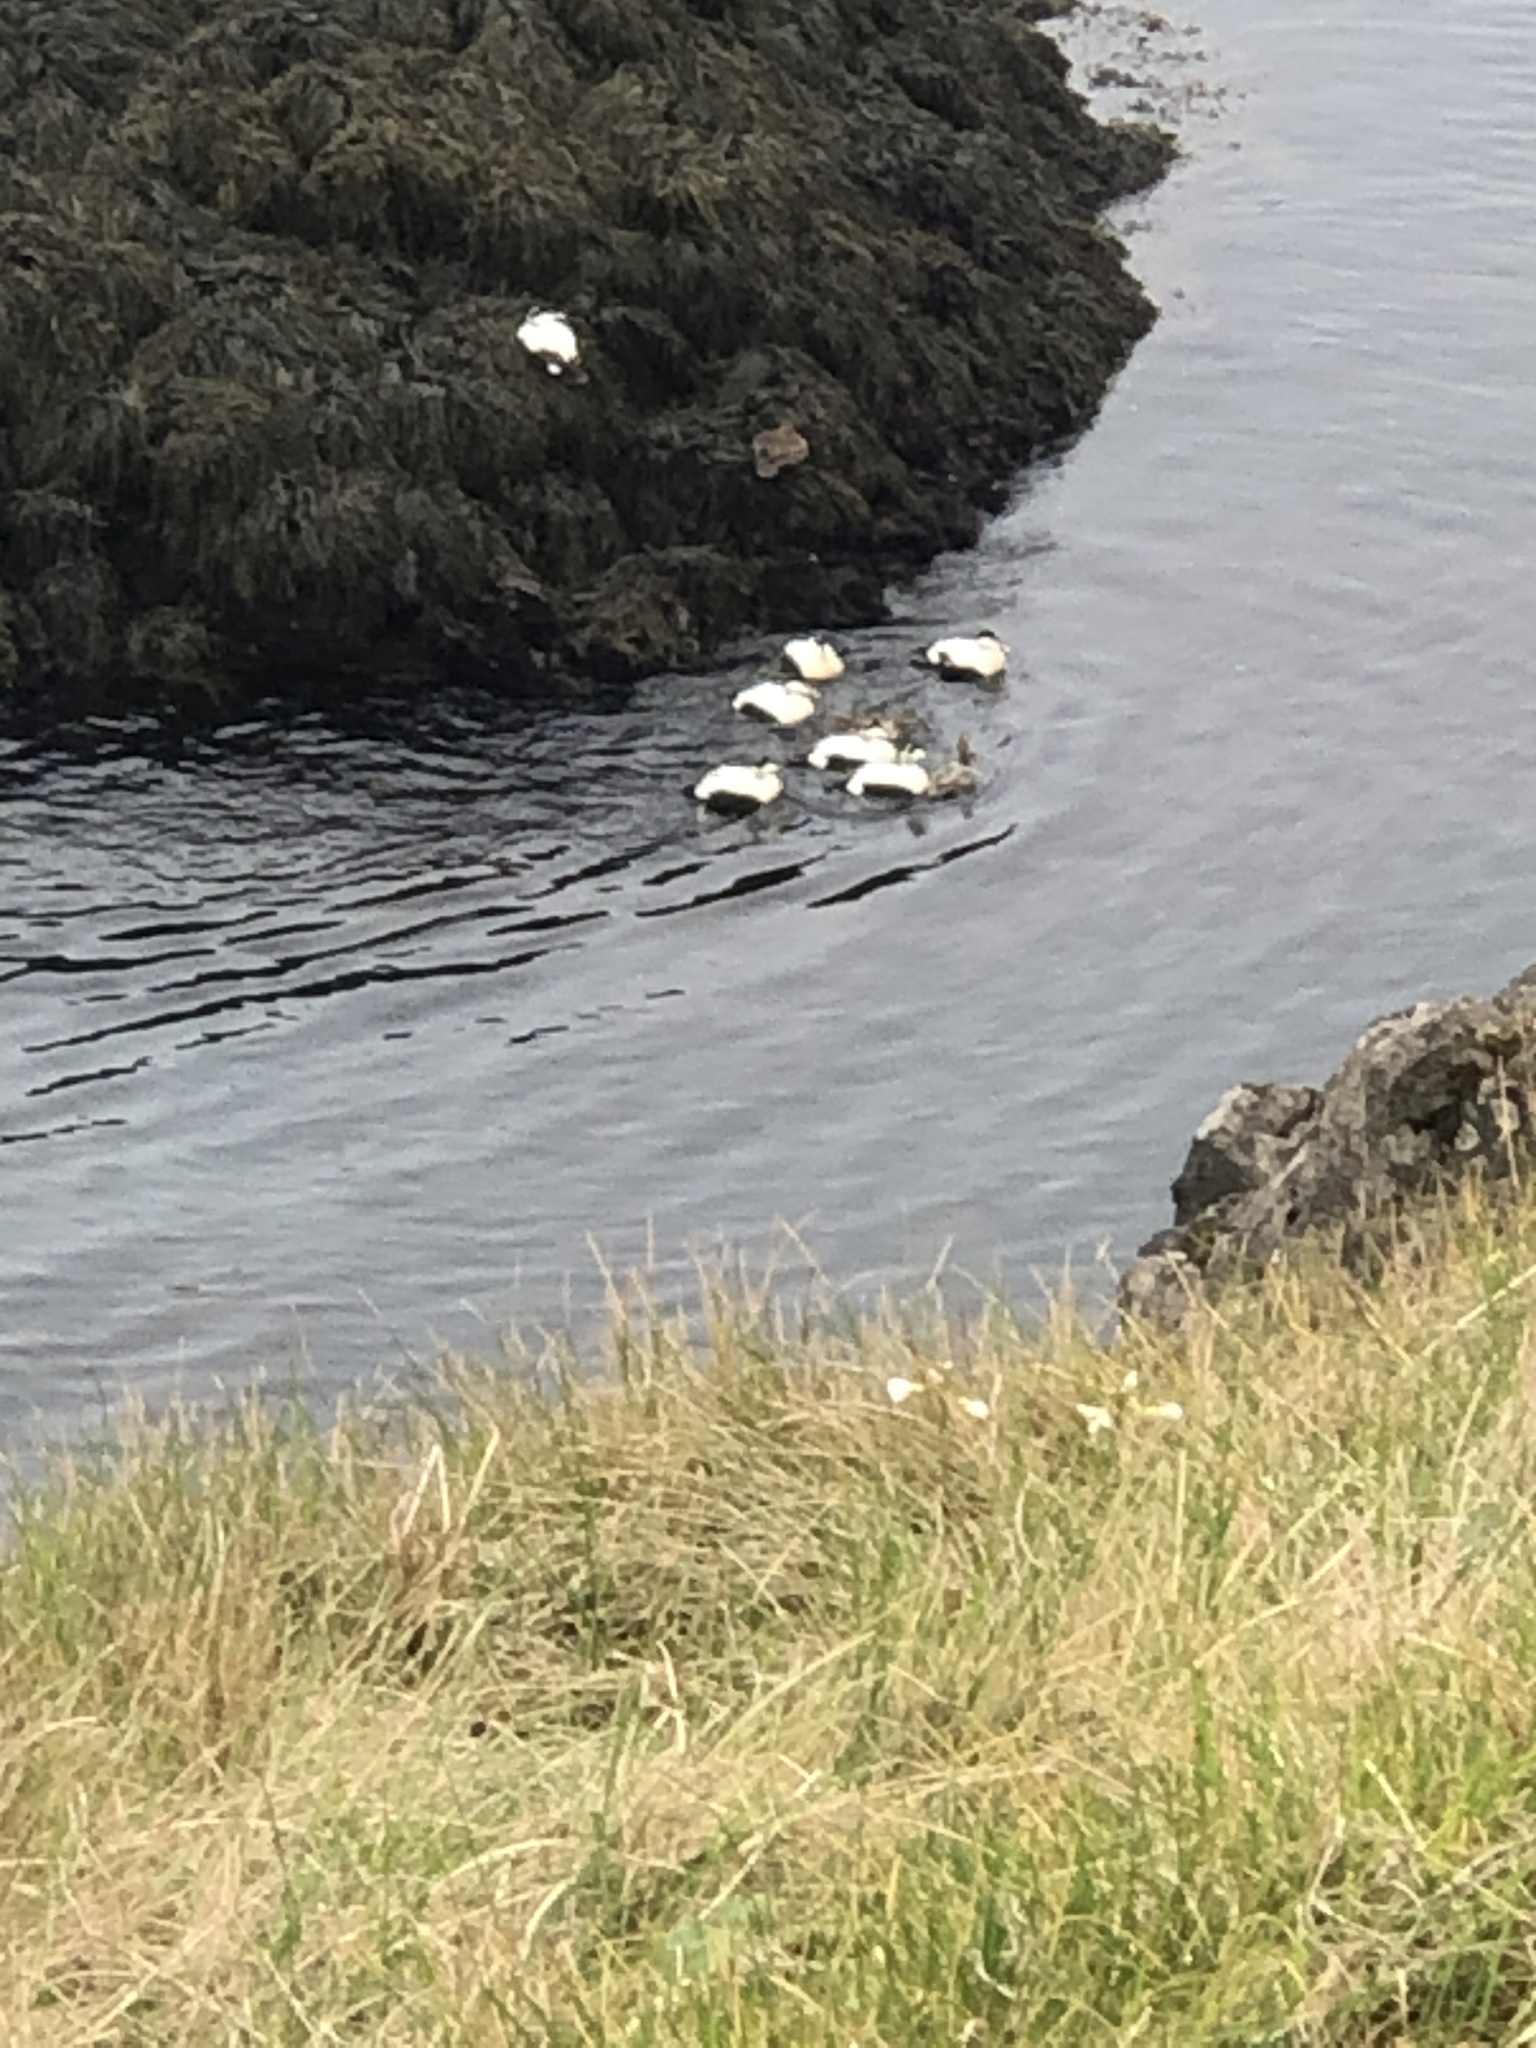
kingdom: Animalia
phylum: Chordata
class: Aves
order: Anseriformes
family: Anatidae
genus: Somateria
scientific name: Somateria mollissima
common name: Common eider
